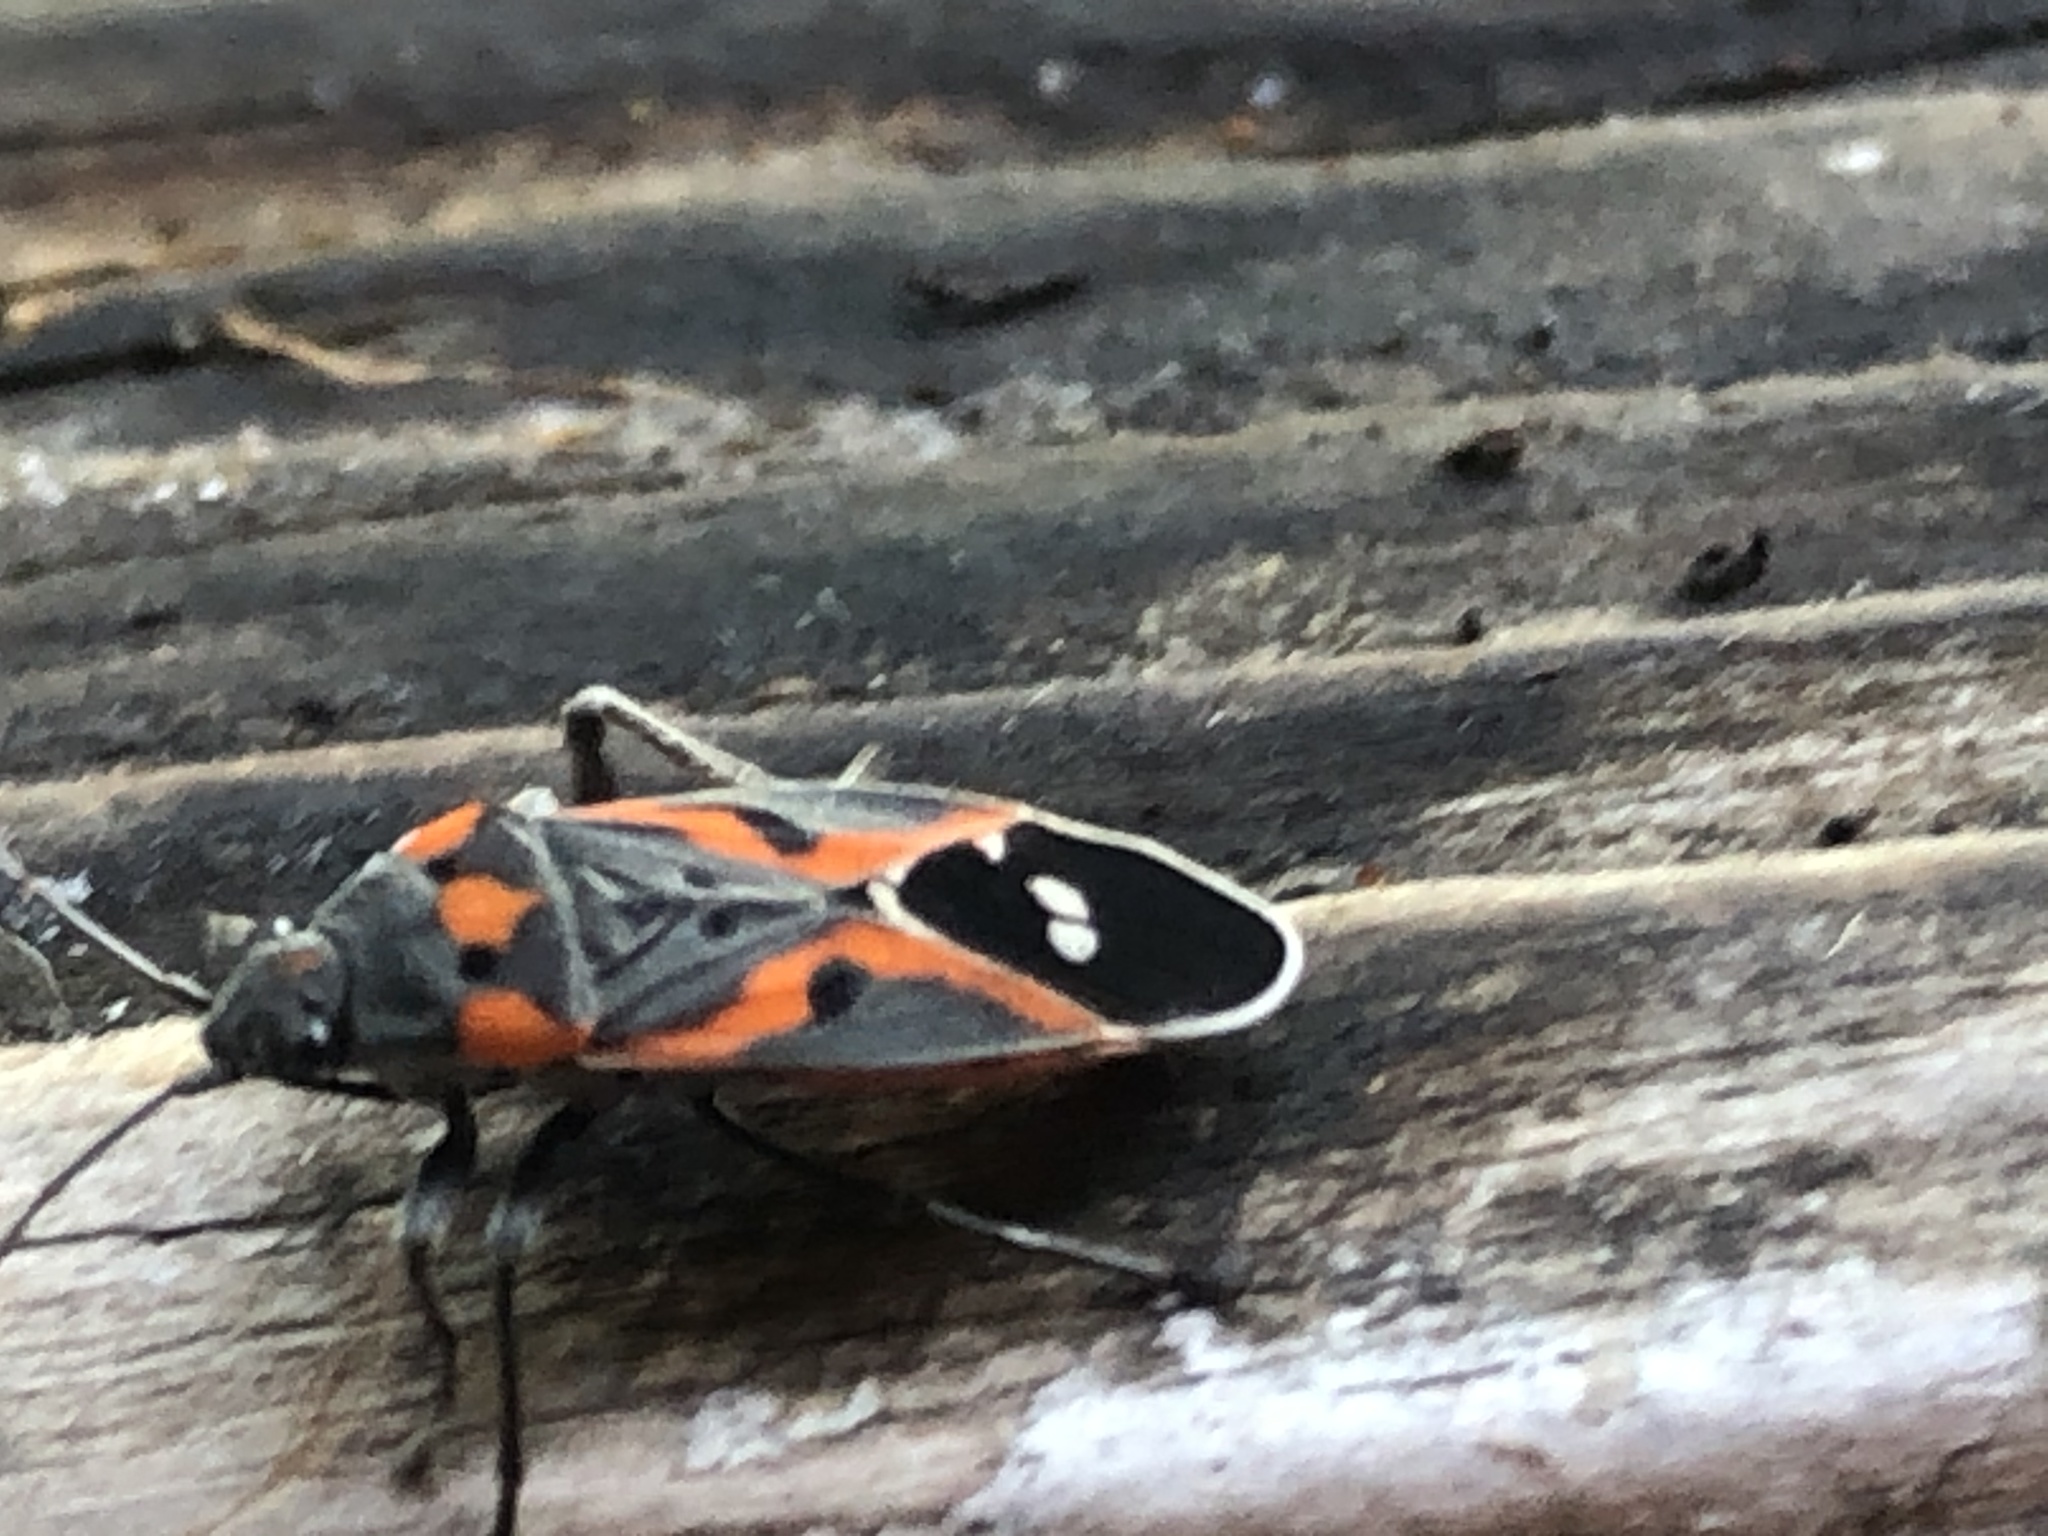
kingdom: Animalia
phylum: Arthropoda
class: Insecta
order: Hemiptera
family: Lygaeidae
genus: Lygaeus
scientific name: Lygaeus kalmii
